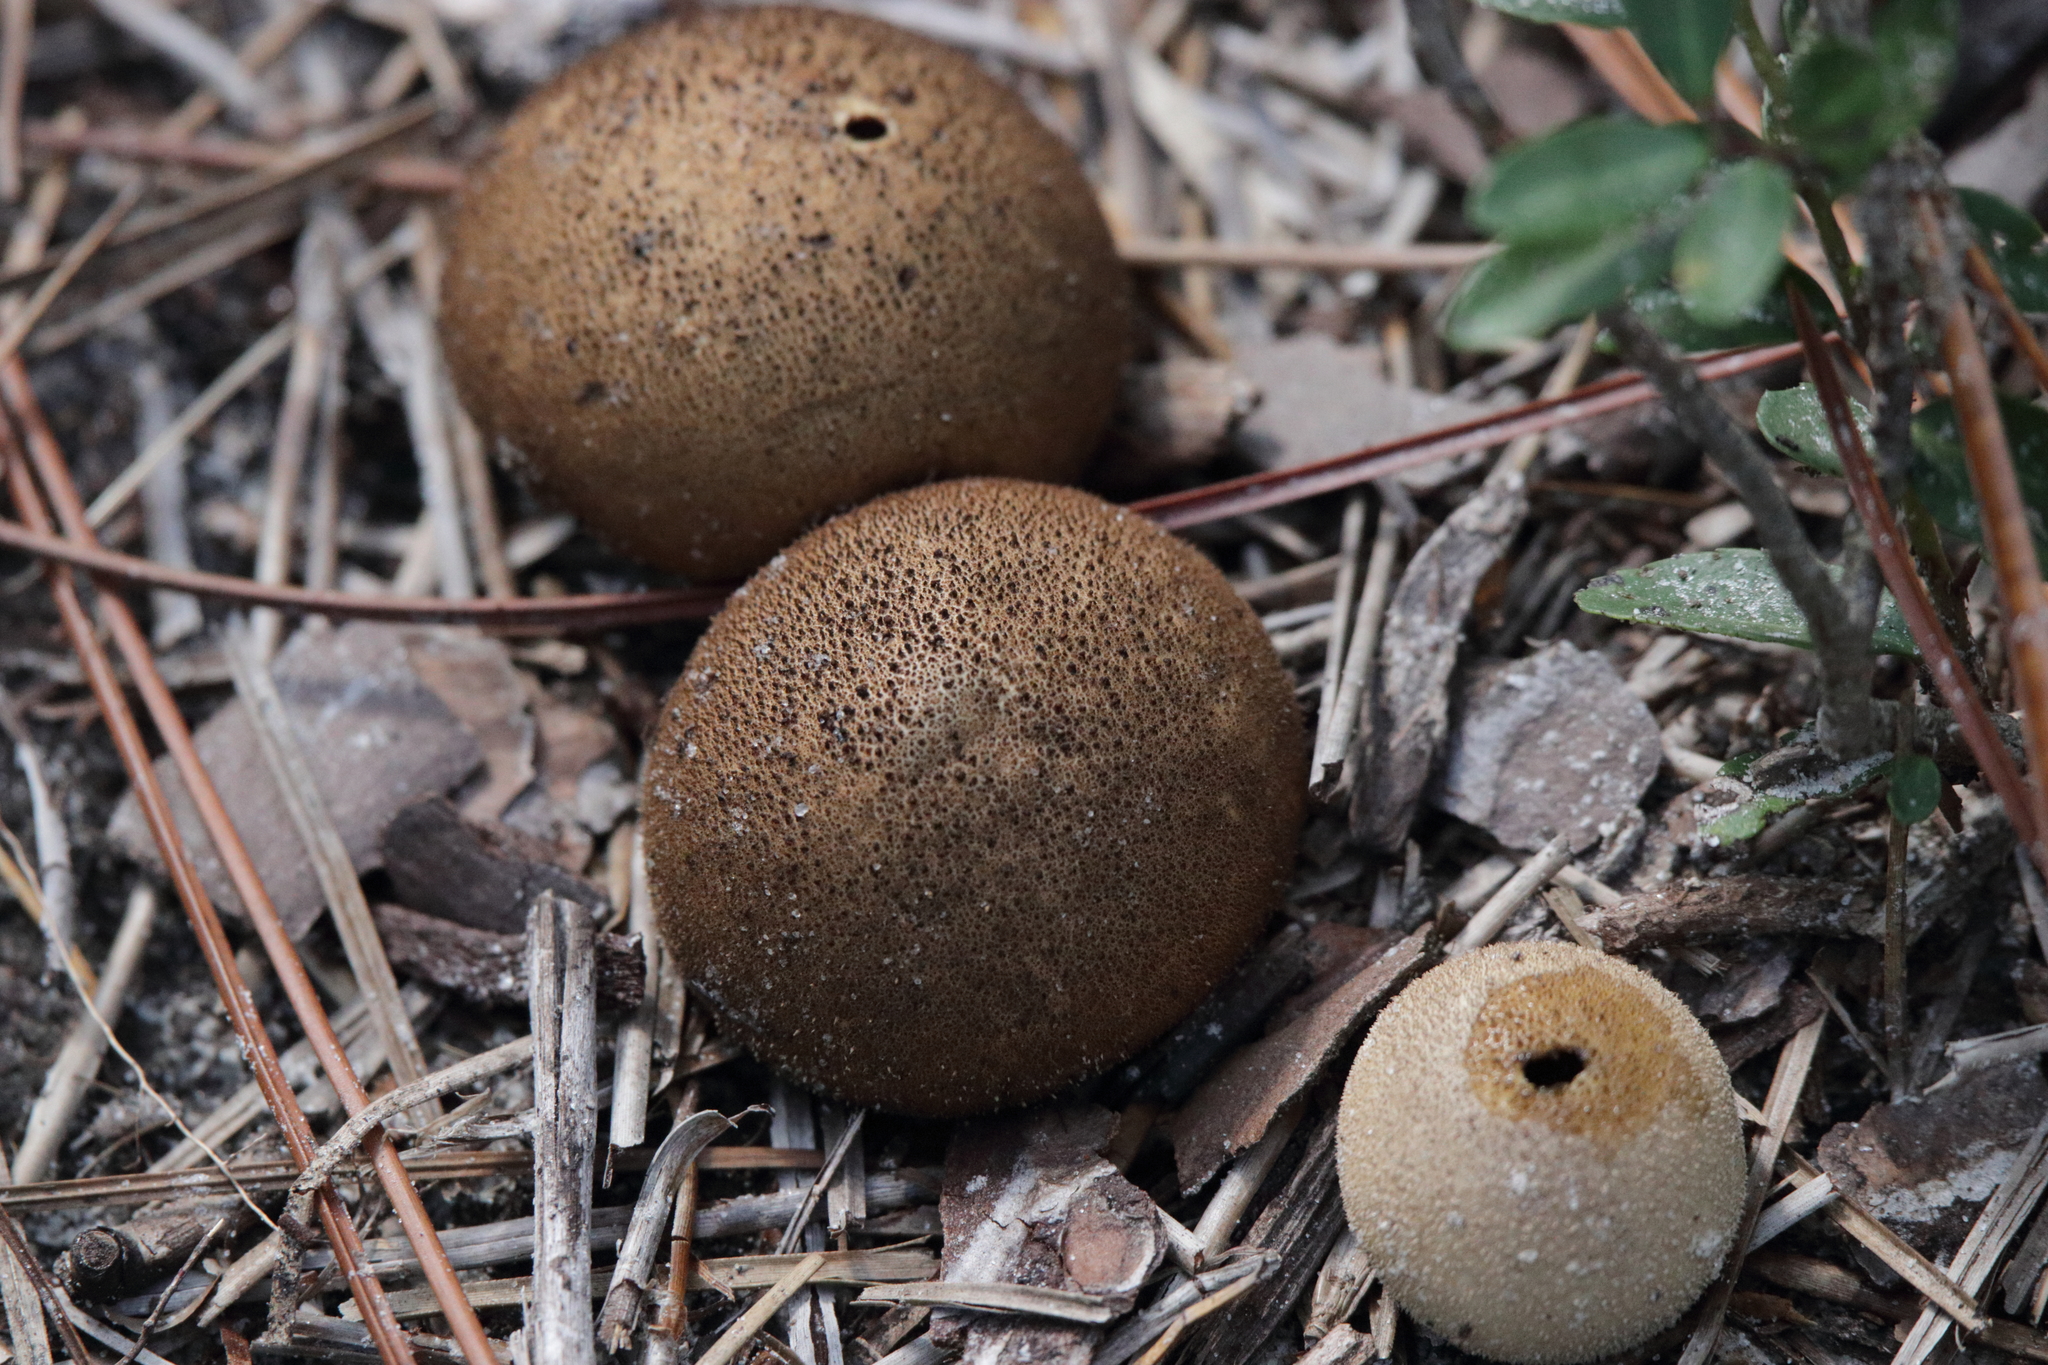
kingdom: Fungi
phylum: Basidiomycota
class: Agaricomycetes
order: Agaricales
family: Lycoperdaceae
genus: Lycoperdon
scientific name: Lycoperdon umbrinum
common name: Umber-brown puffball
